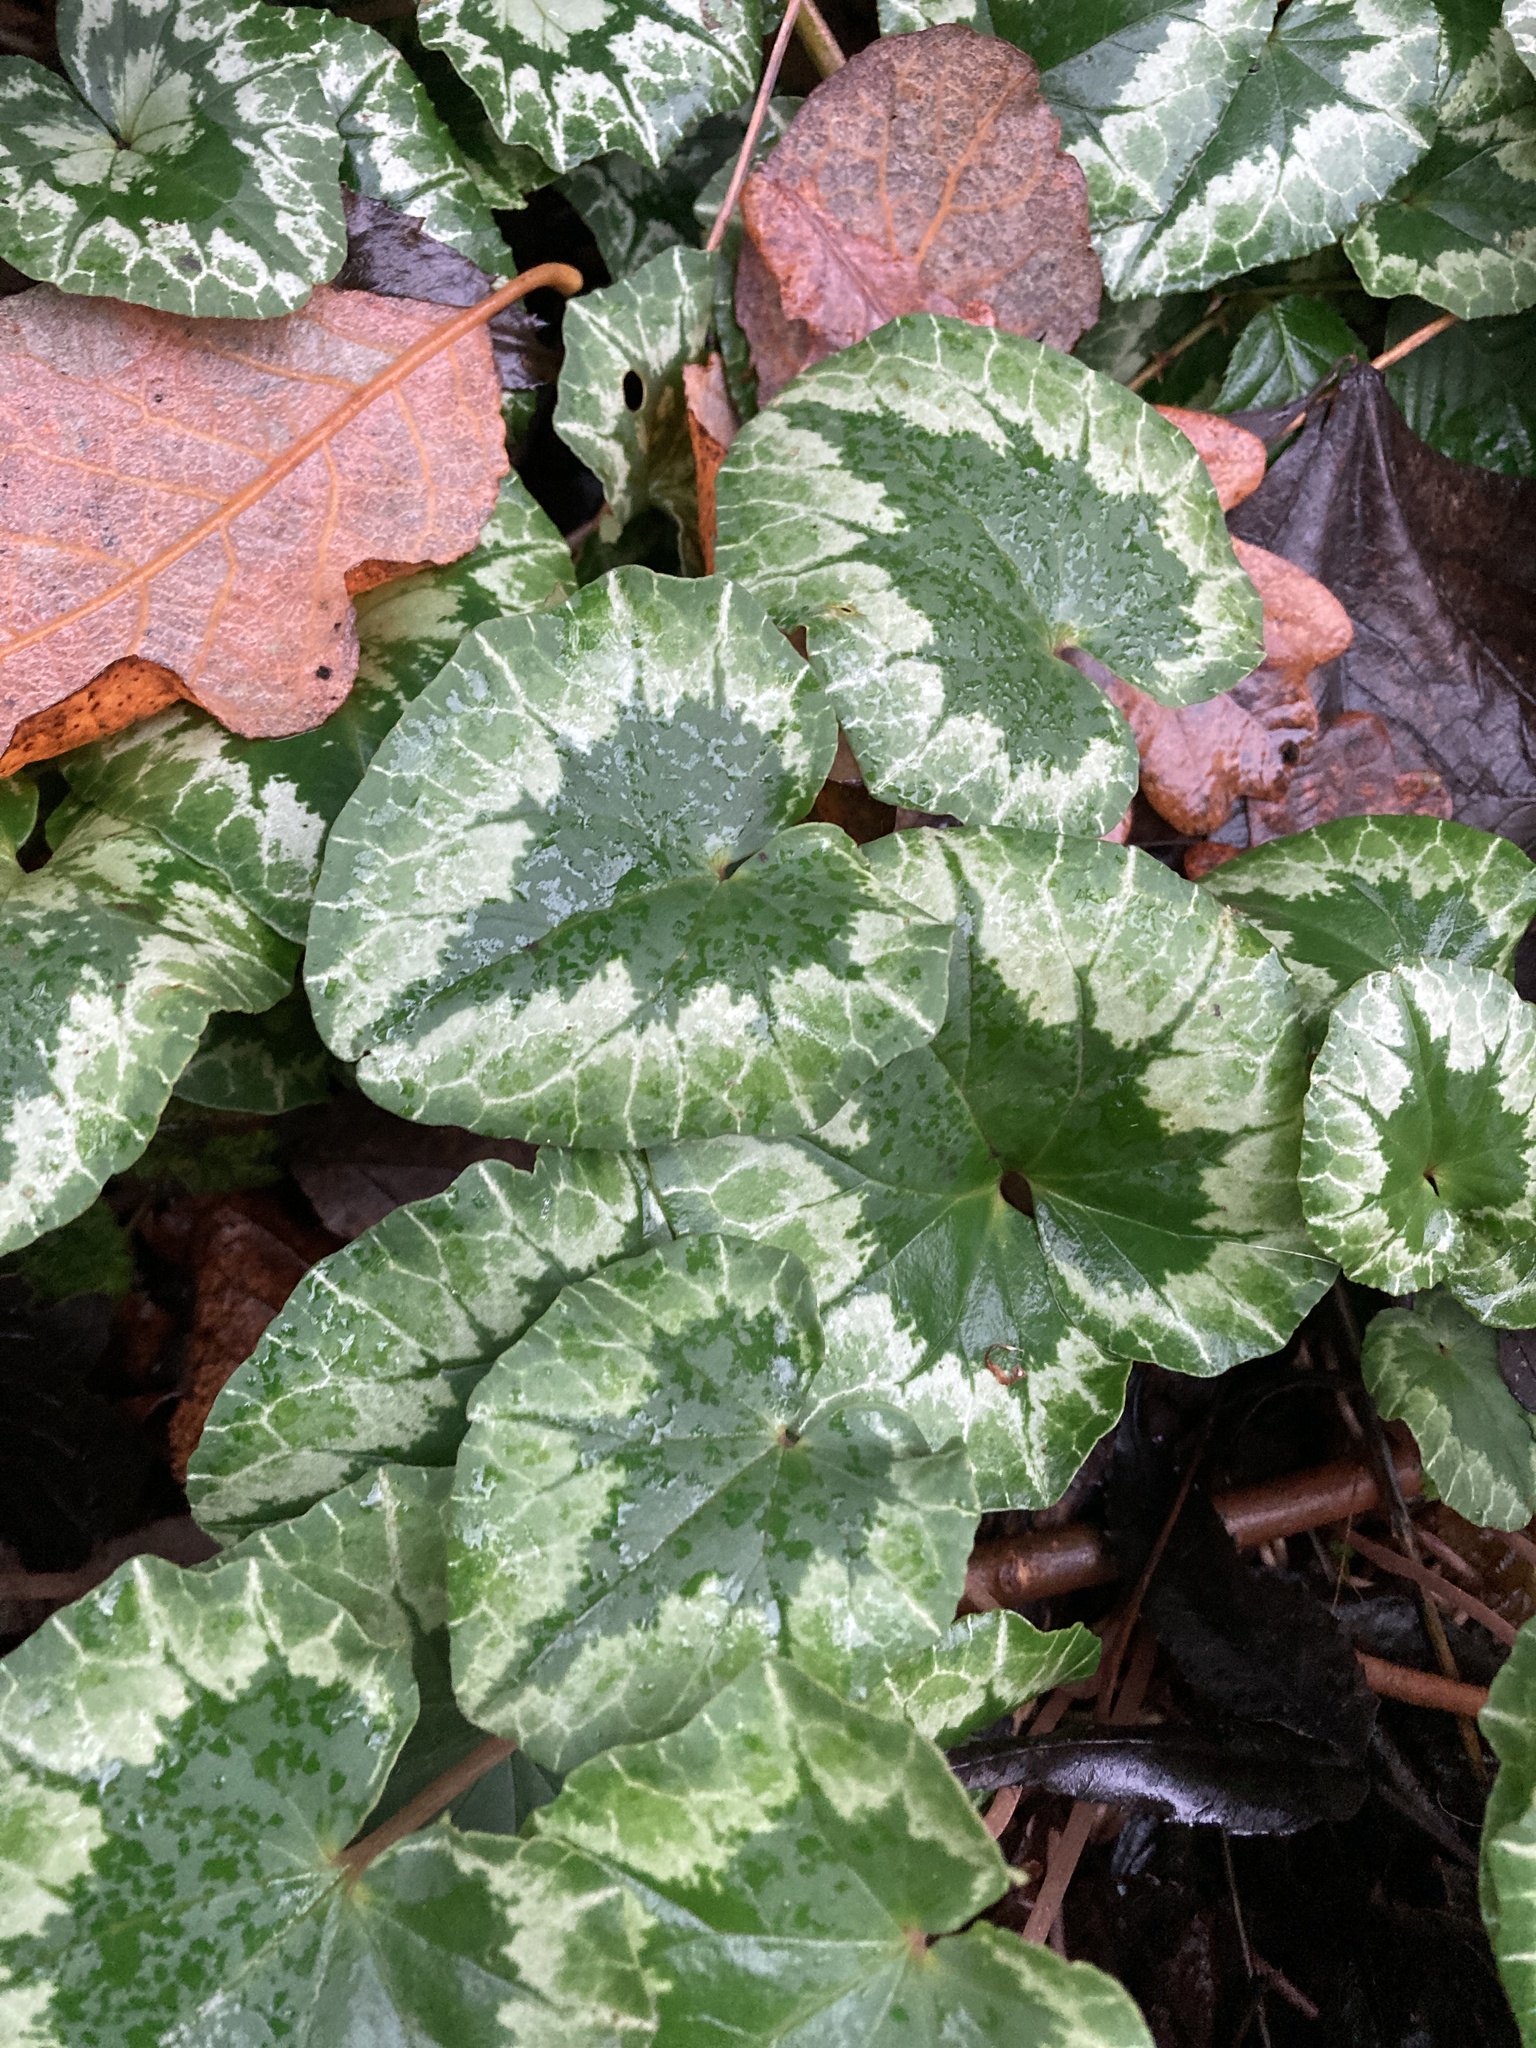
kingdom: Plantae
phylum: Tracheophyta
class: Magnoliopsida
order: Ericales
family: Primulaceae
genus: Cyclamen
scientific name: Cyclamen hederifolium
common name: Sowbread
